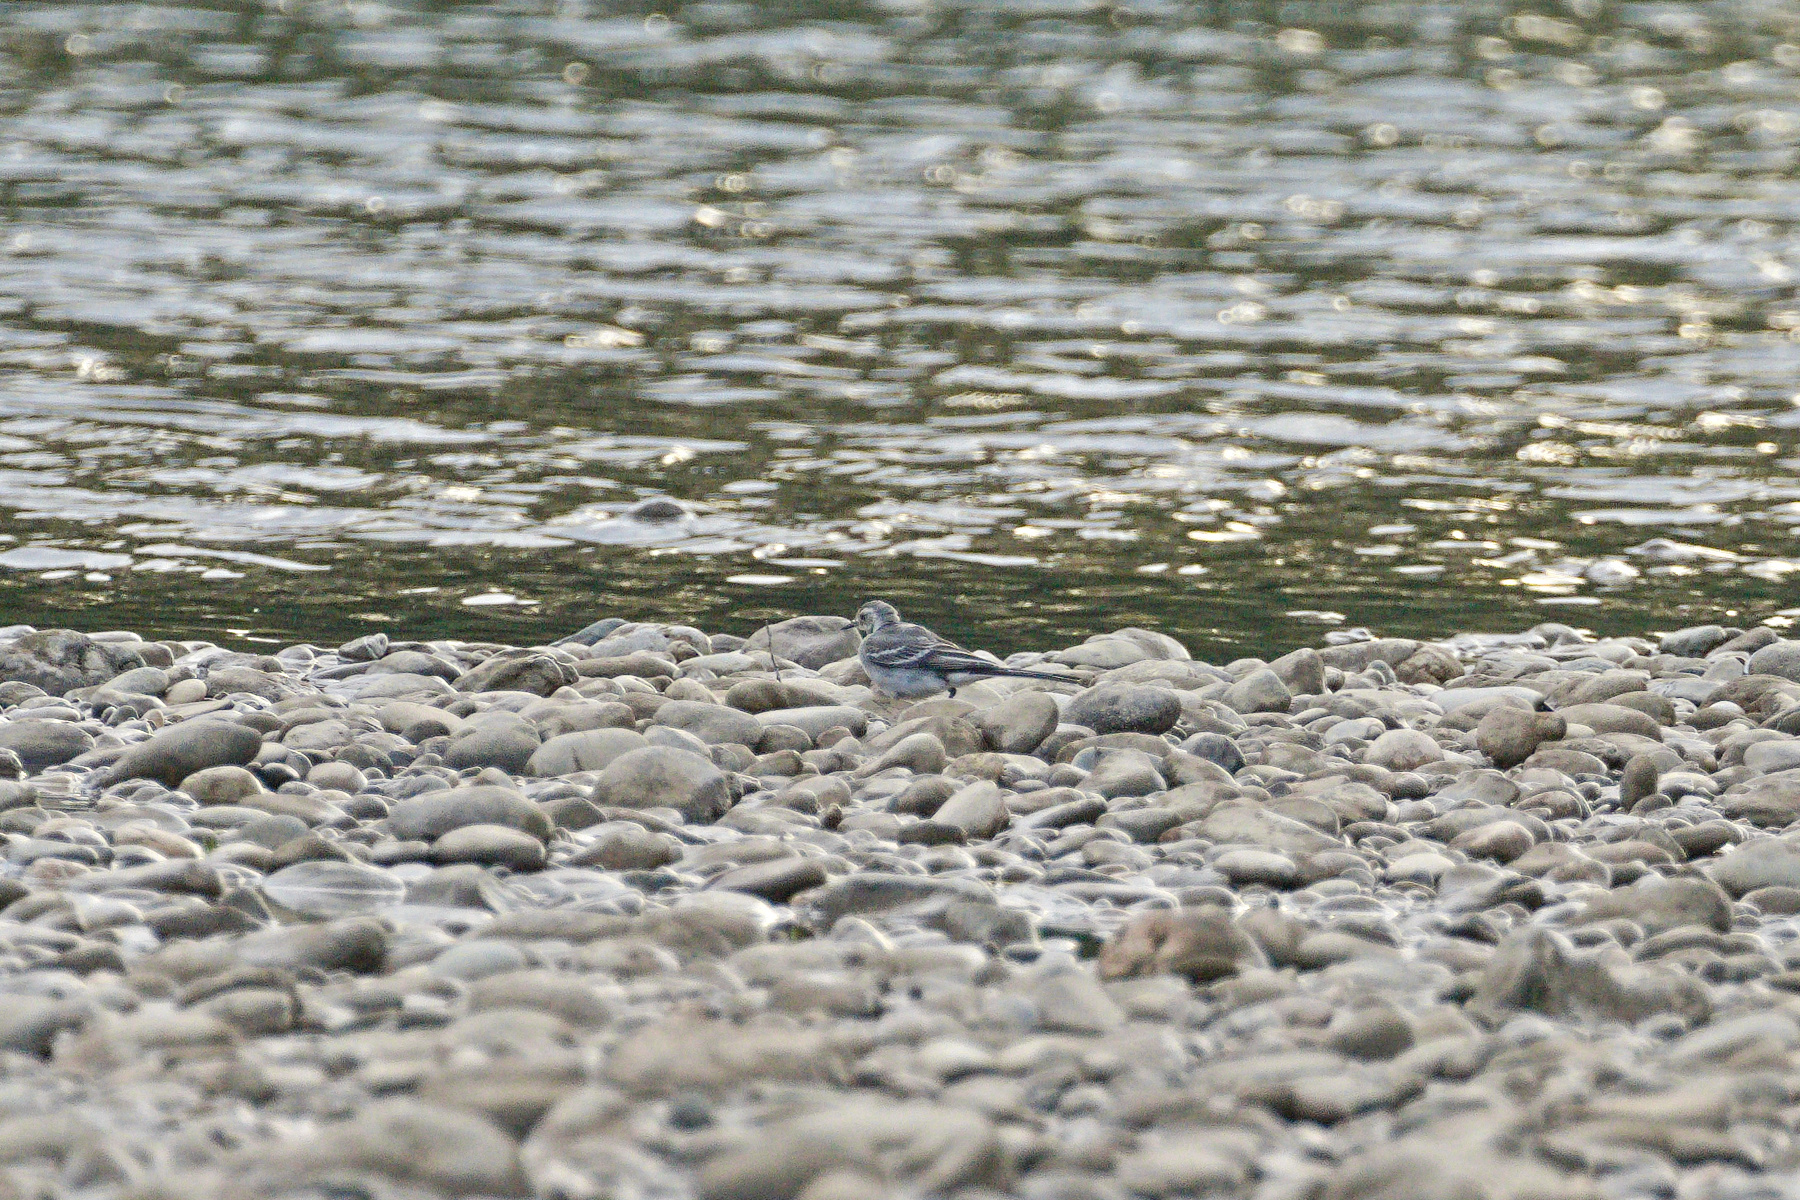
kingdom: Animalia
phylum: Chordata
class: Aves
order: Passeriformes
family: Motacillidae
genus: Motacilla
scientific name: Motacilla alba
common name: White wagtail
